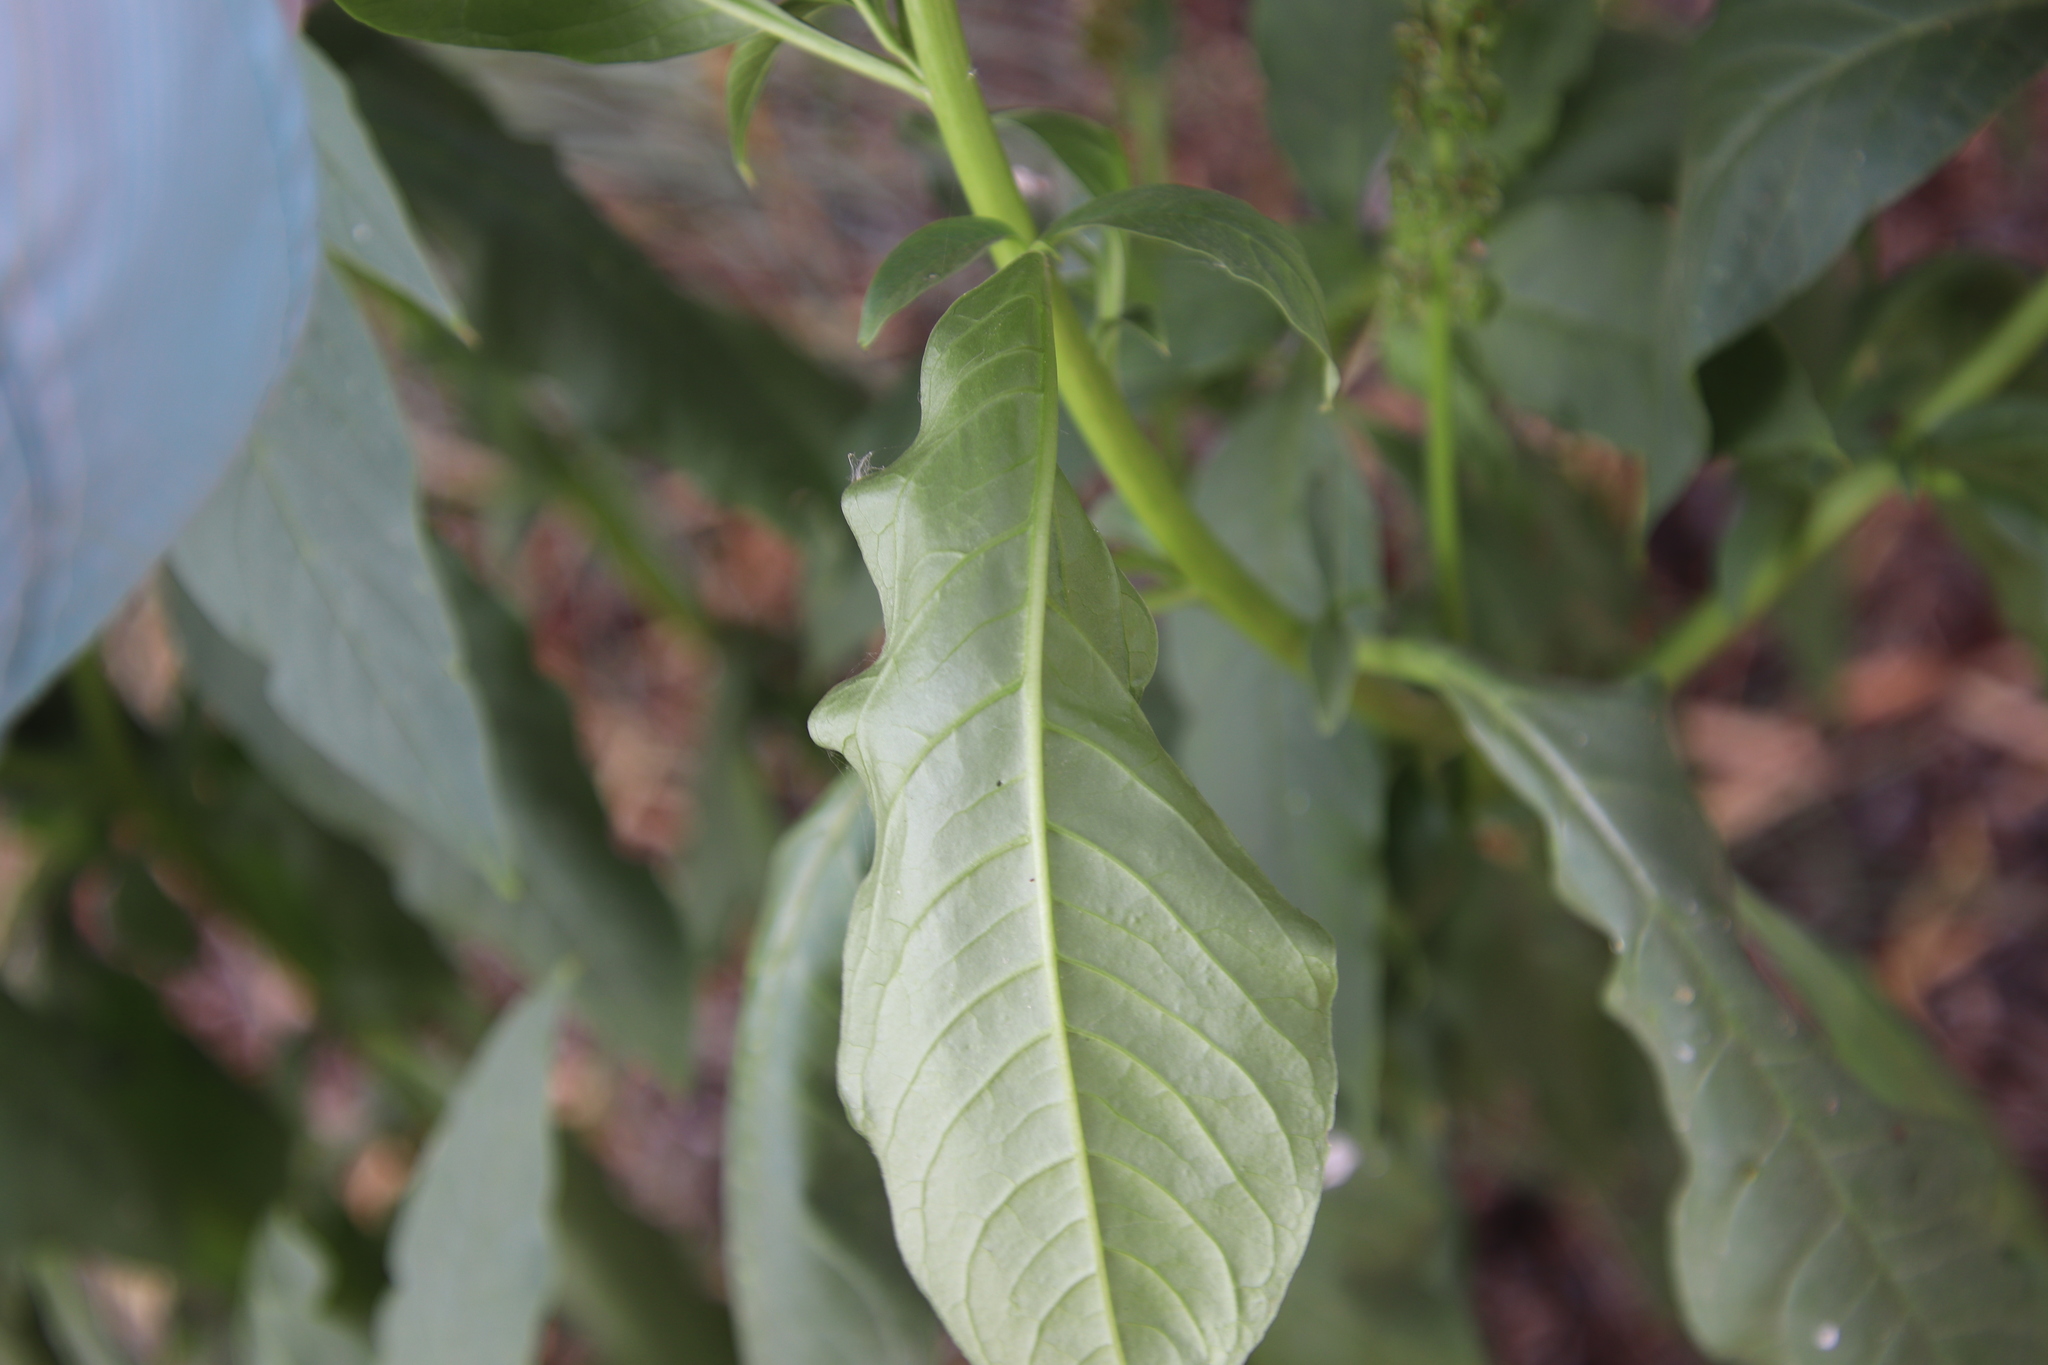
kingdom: Plantae
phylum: Tracheophyta
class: Magnoliopsida
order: Caryophyllales
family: Phytolaccaceae
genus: Phytolacca
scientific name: Phytolacca icosandra
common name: Button pokeweed
